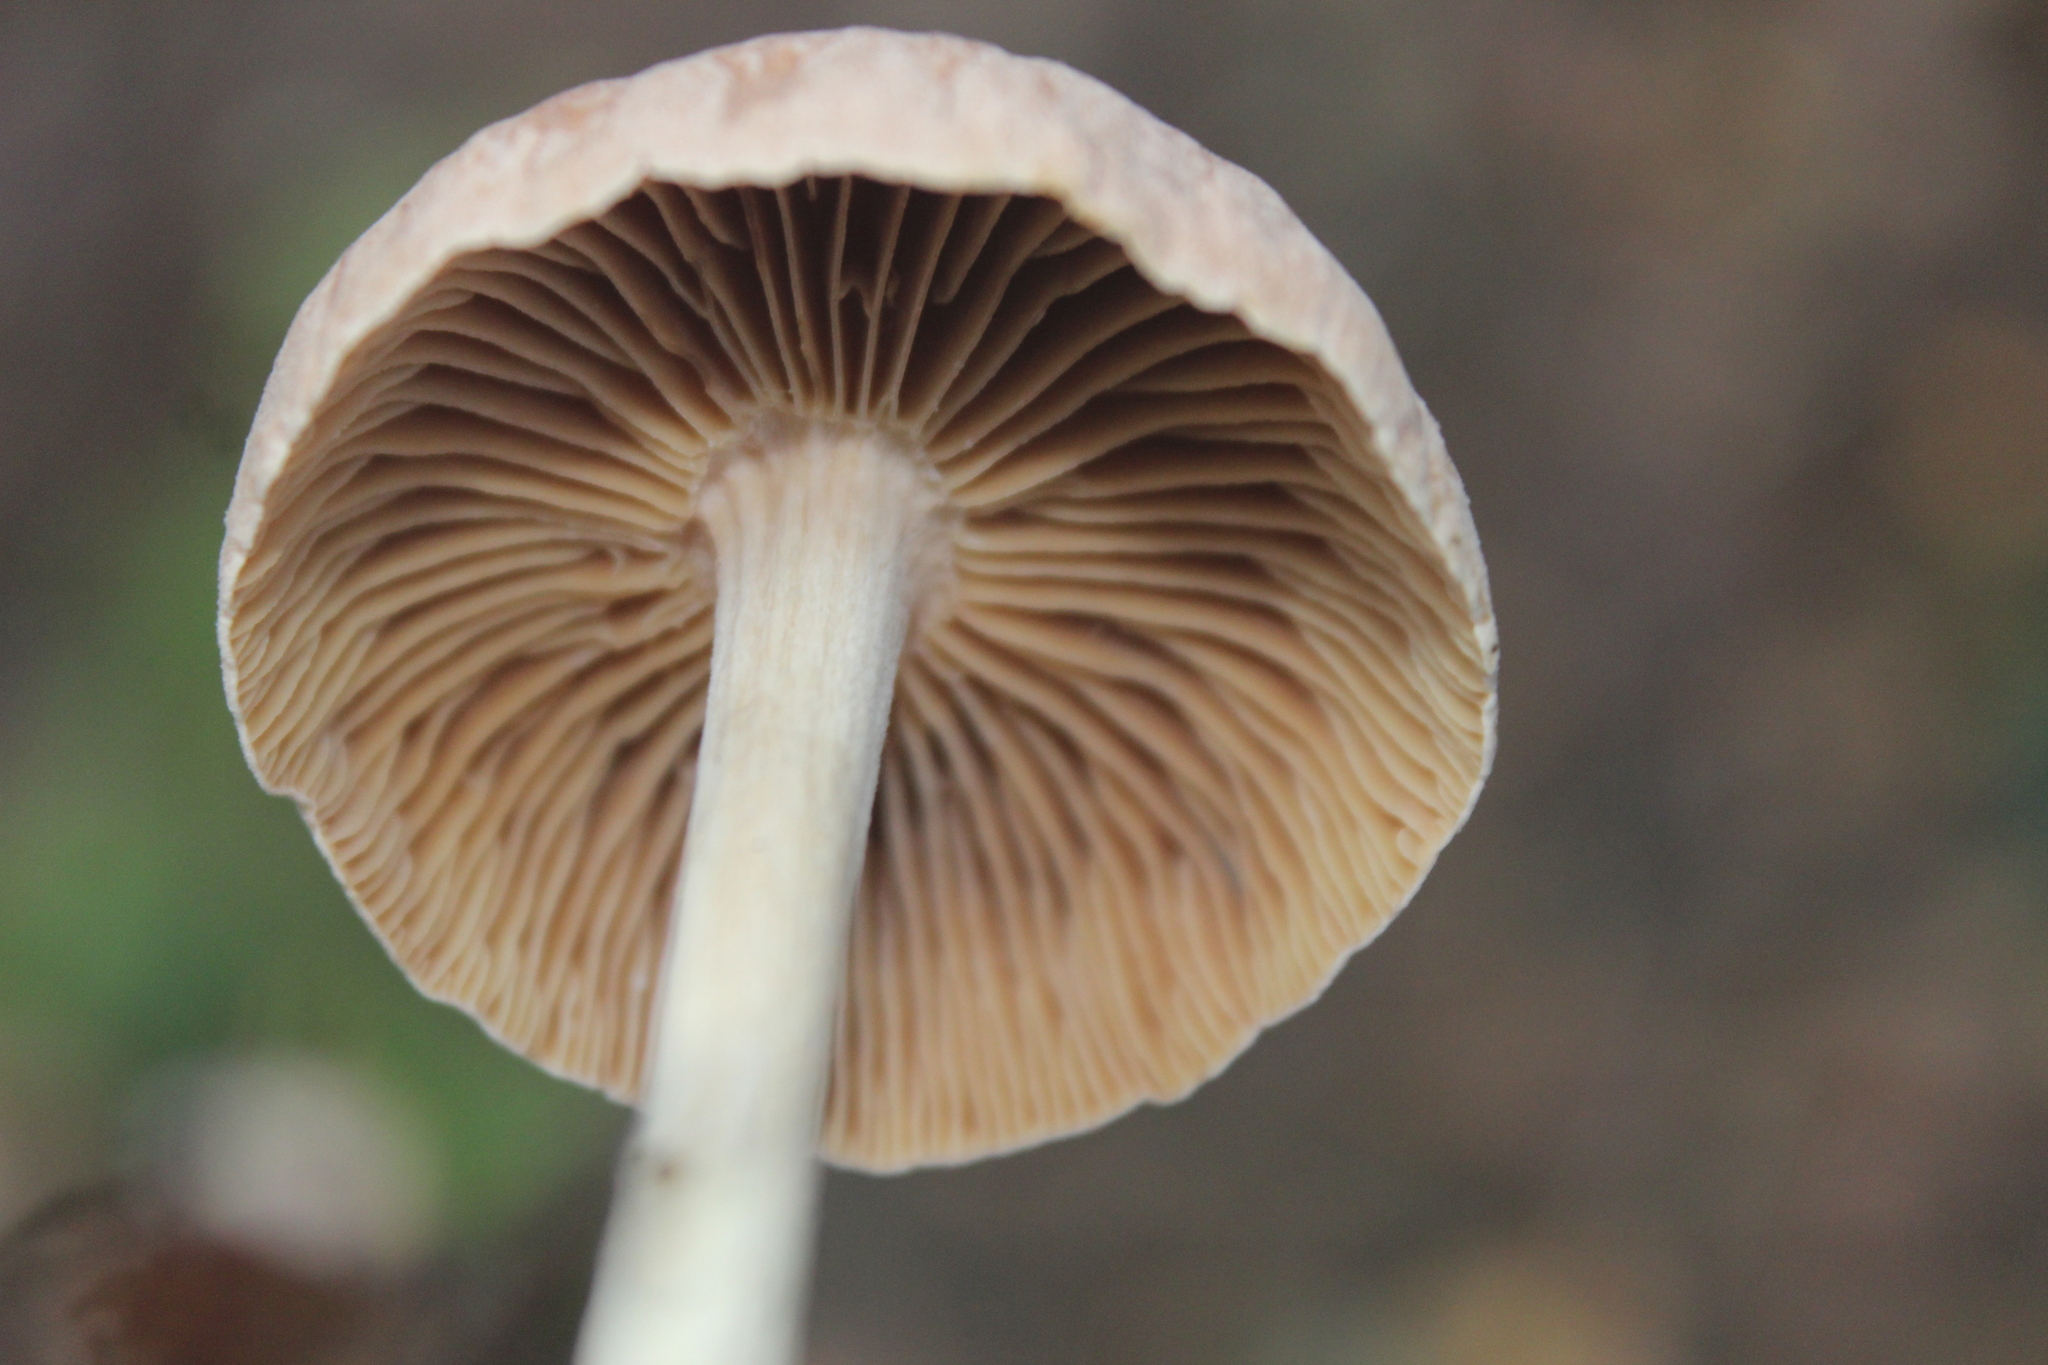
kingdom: Fungi
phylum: Basidiomycota
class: Agaricomycetes
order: Agaricales
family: Omphalotaceae
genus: Collybiopsis
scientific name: Collybiopsis peronata
